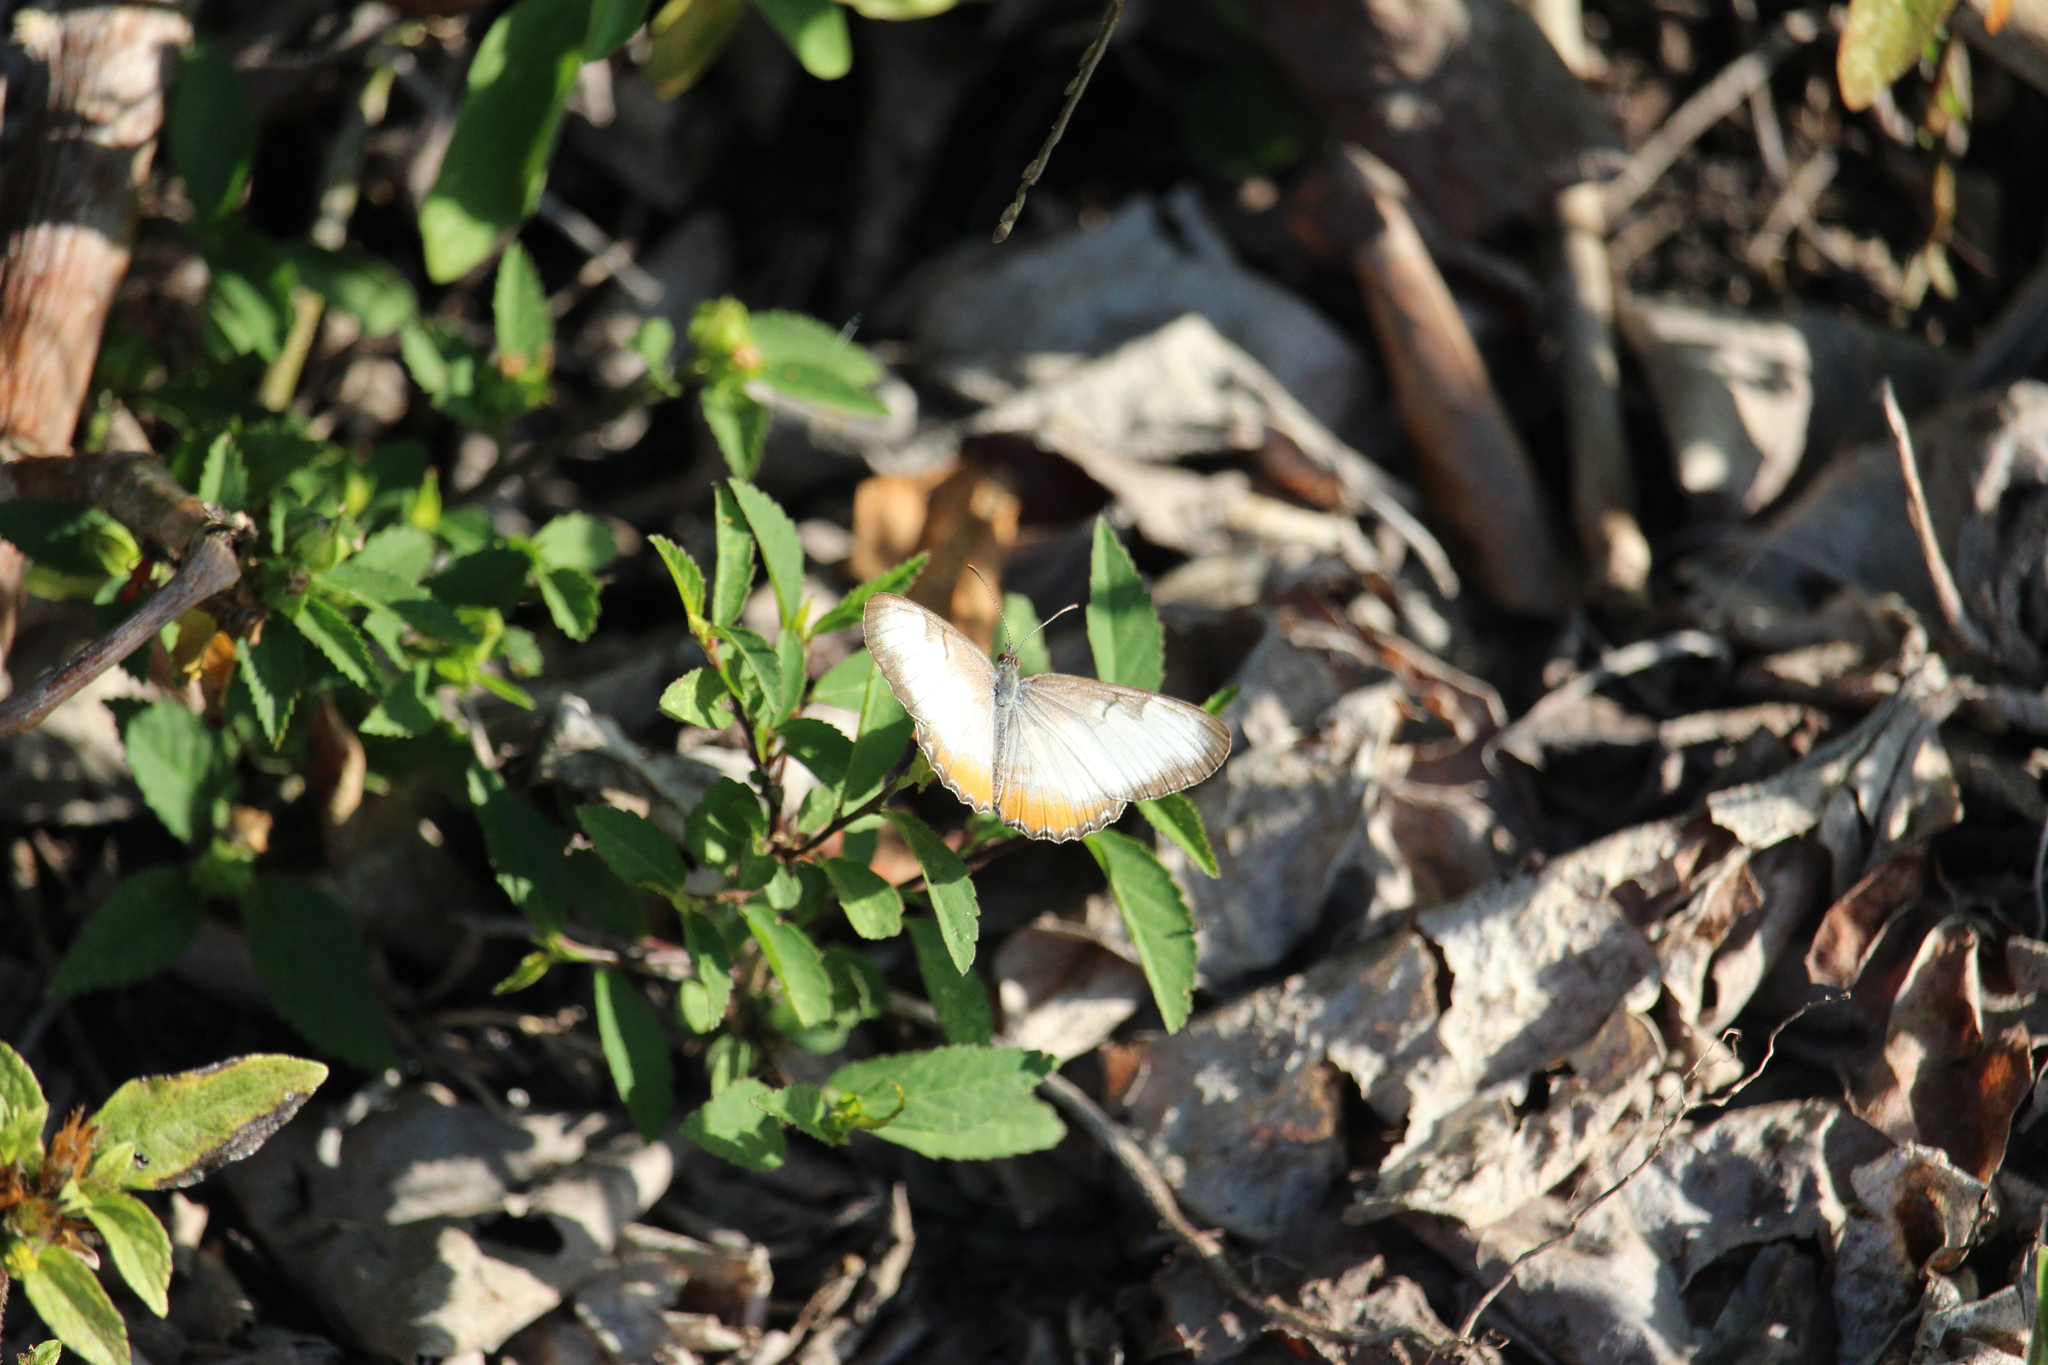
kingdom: Animalia
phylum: Arthropoda
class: Insecta
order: Lepidoptera
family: Nymphalidae
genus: Mestra
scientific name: Mestra amymone
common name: Common mestra
